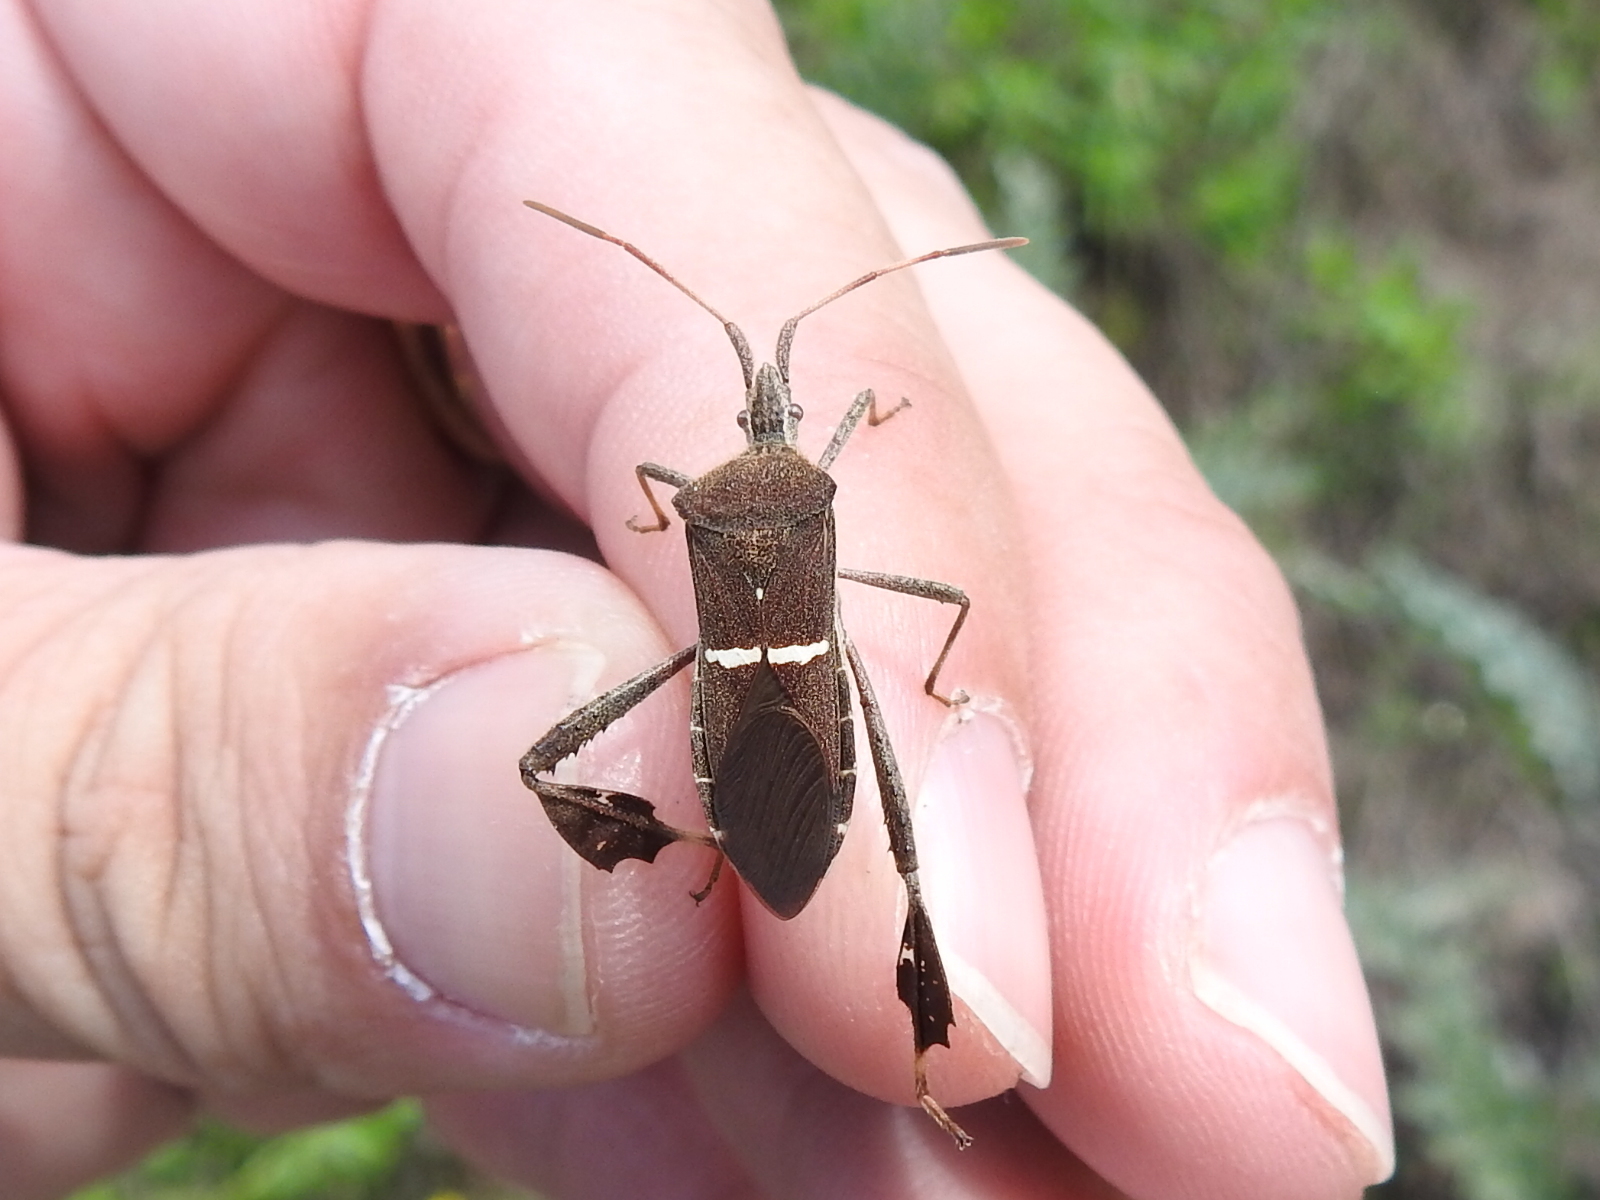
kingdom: Animalia
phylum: Arthropoda
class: Insecta
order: Hemiptera
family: Coreidae
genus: Leptoglossus
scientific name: Leptoglossus phyllopus
